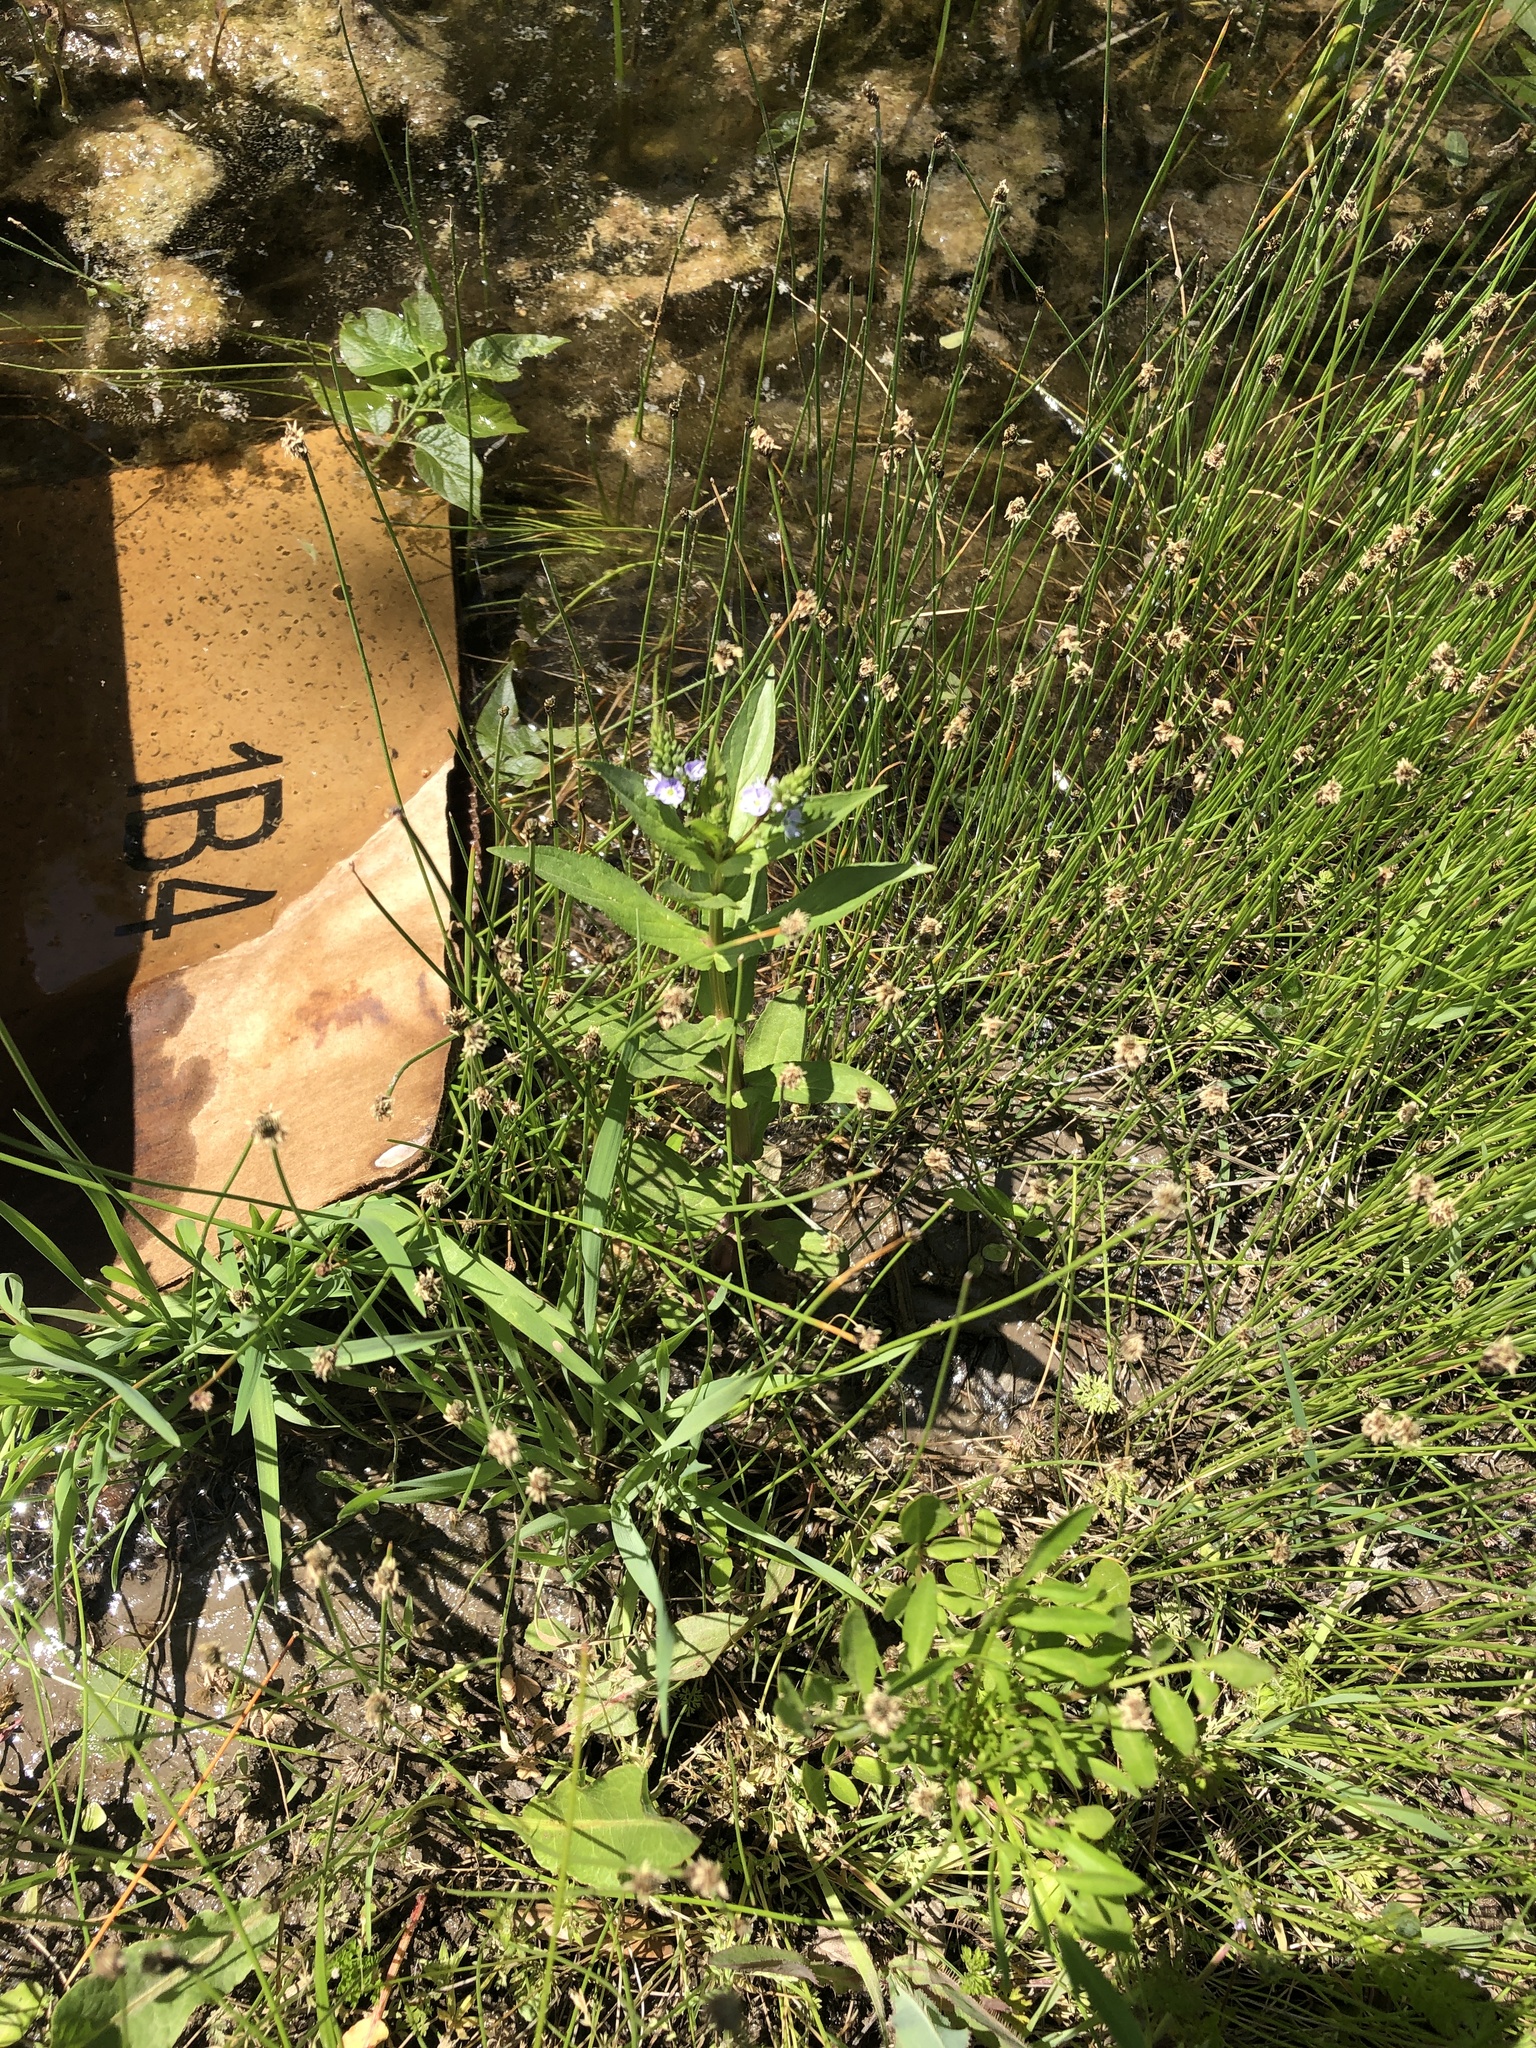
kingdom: Plantae
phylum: Tracheophyta
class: Magnoliopsida
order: Lamiales
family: Plantaginaceae
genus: Veronica
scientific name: Veronica anagallis-aquatica
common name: Water speedwell
